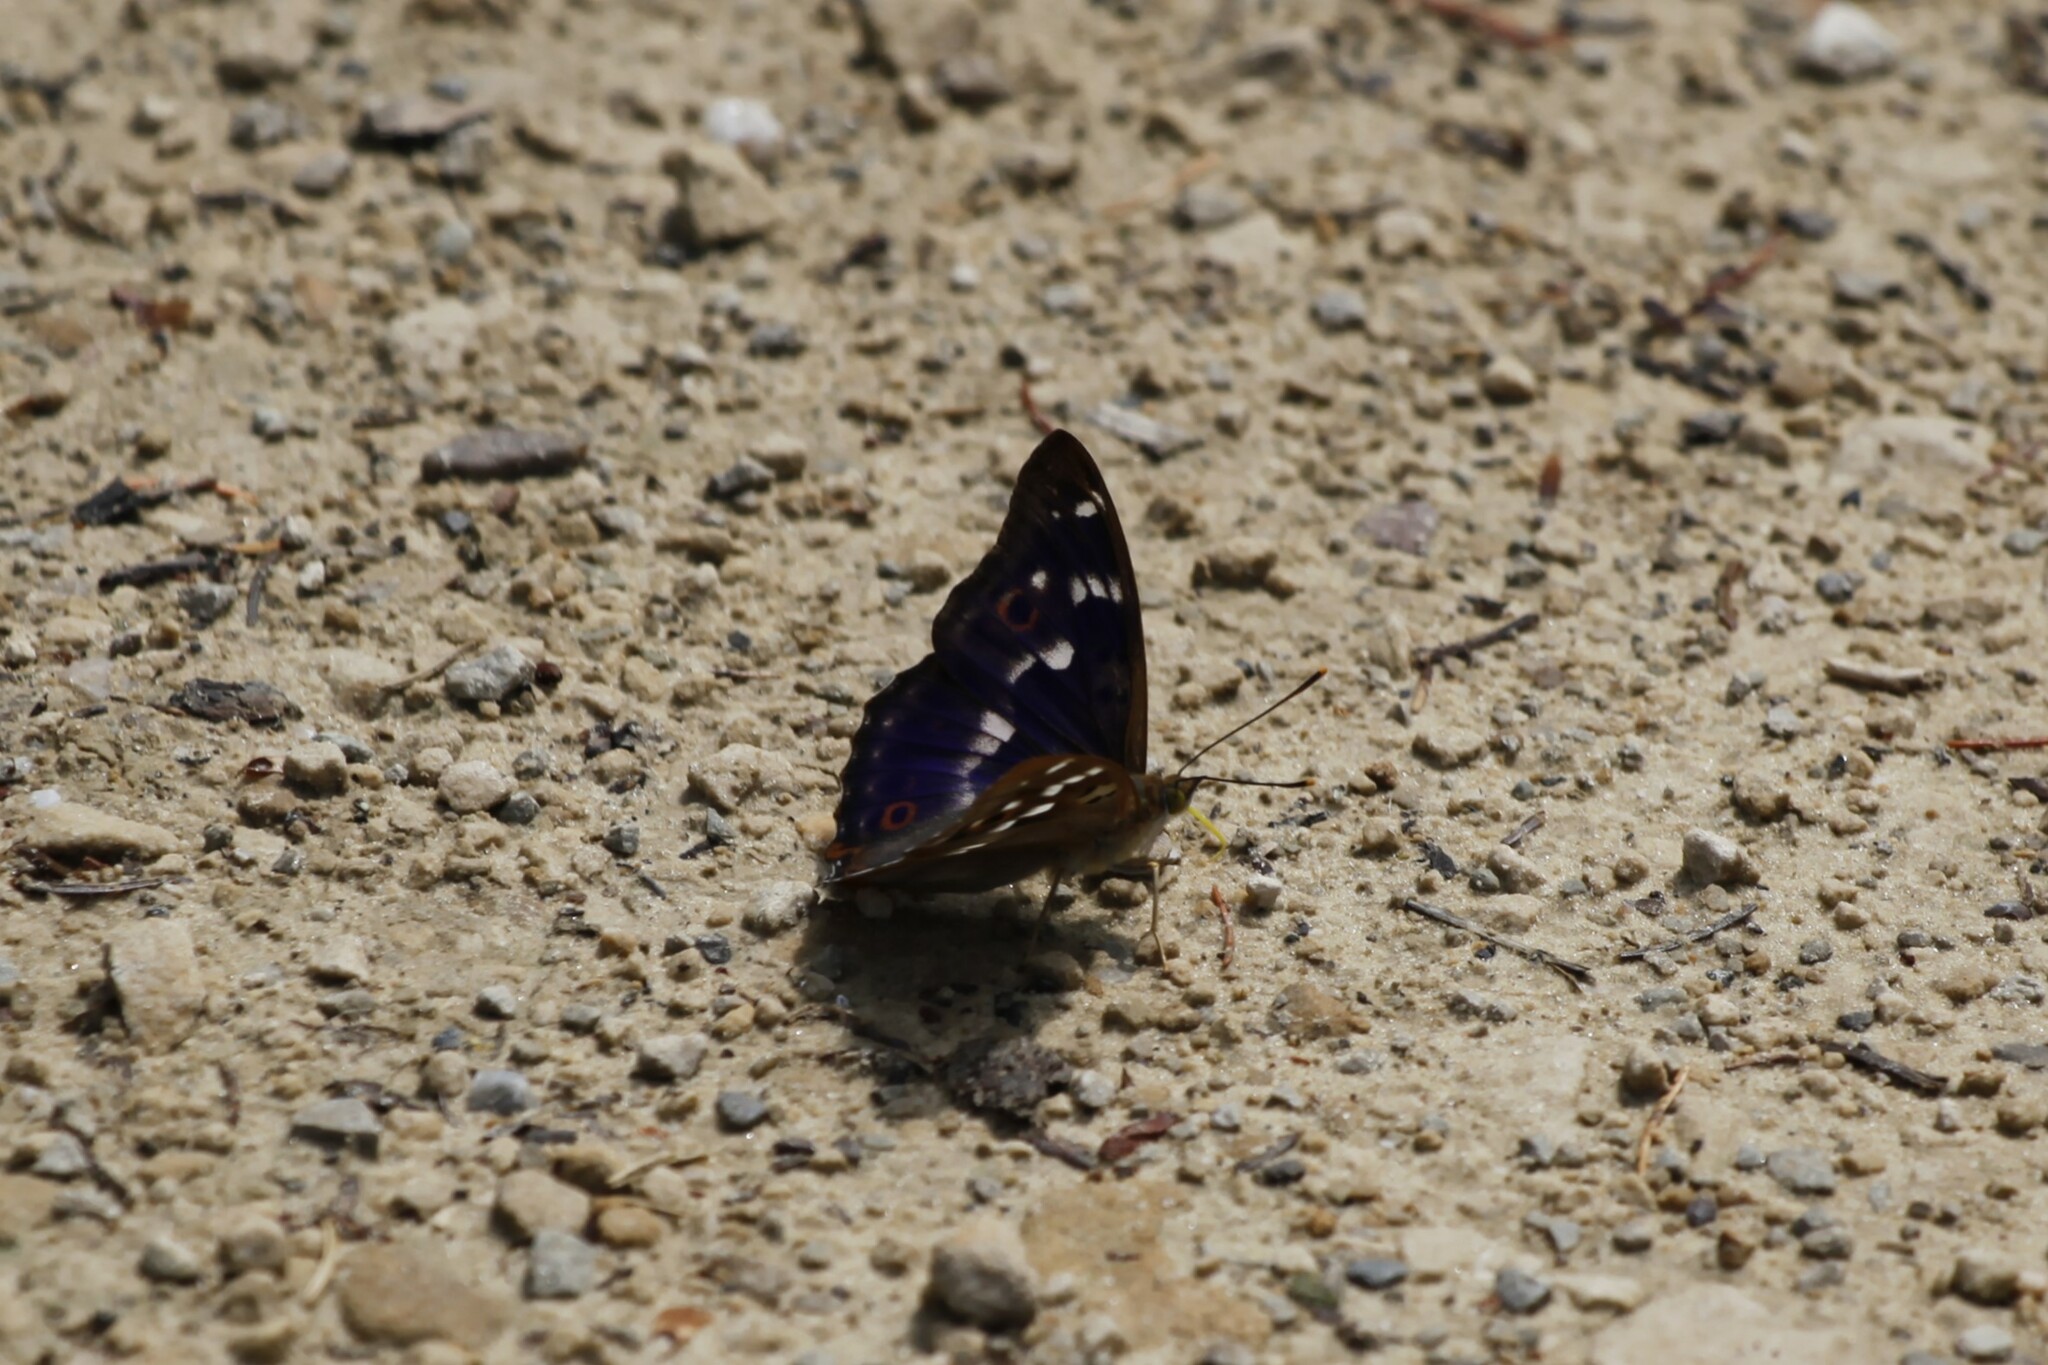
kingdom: Animalia
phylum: Arthropoda
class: Insecta
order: Lepidoptera
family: Nymphalidae
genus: Apatura
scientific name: Apatura ilia
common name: Lesser purple emperor
